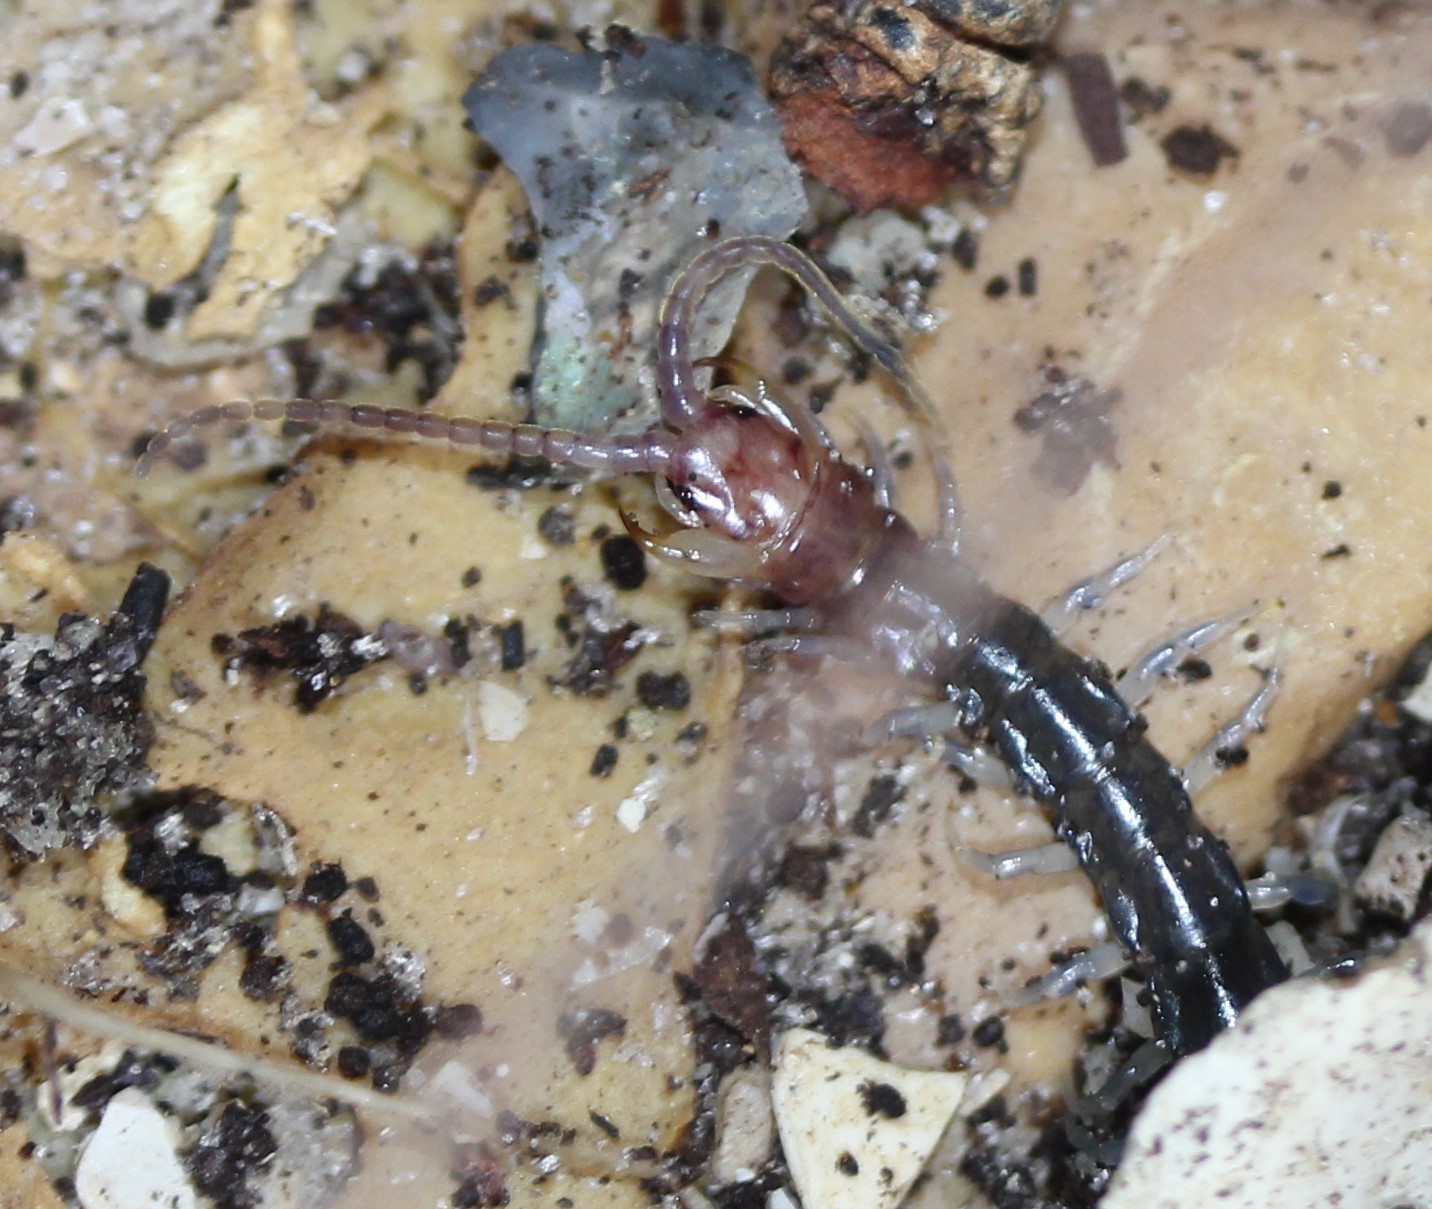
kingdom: Animalia
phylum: Arthropoda
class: Chilopoda
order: Scolopendromorpha
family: Scolopendridae
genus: Rhysida
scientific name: Rhysida longipes
